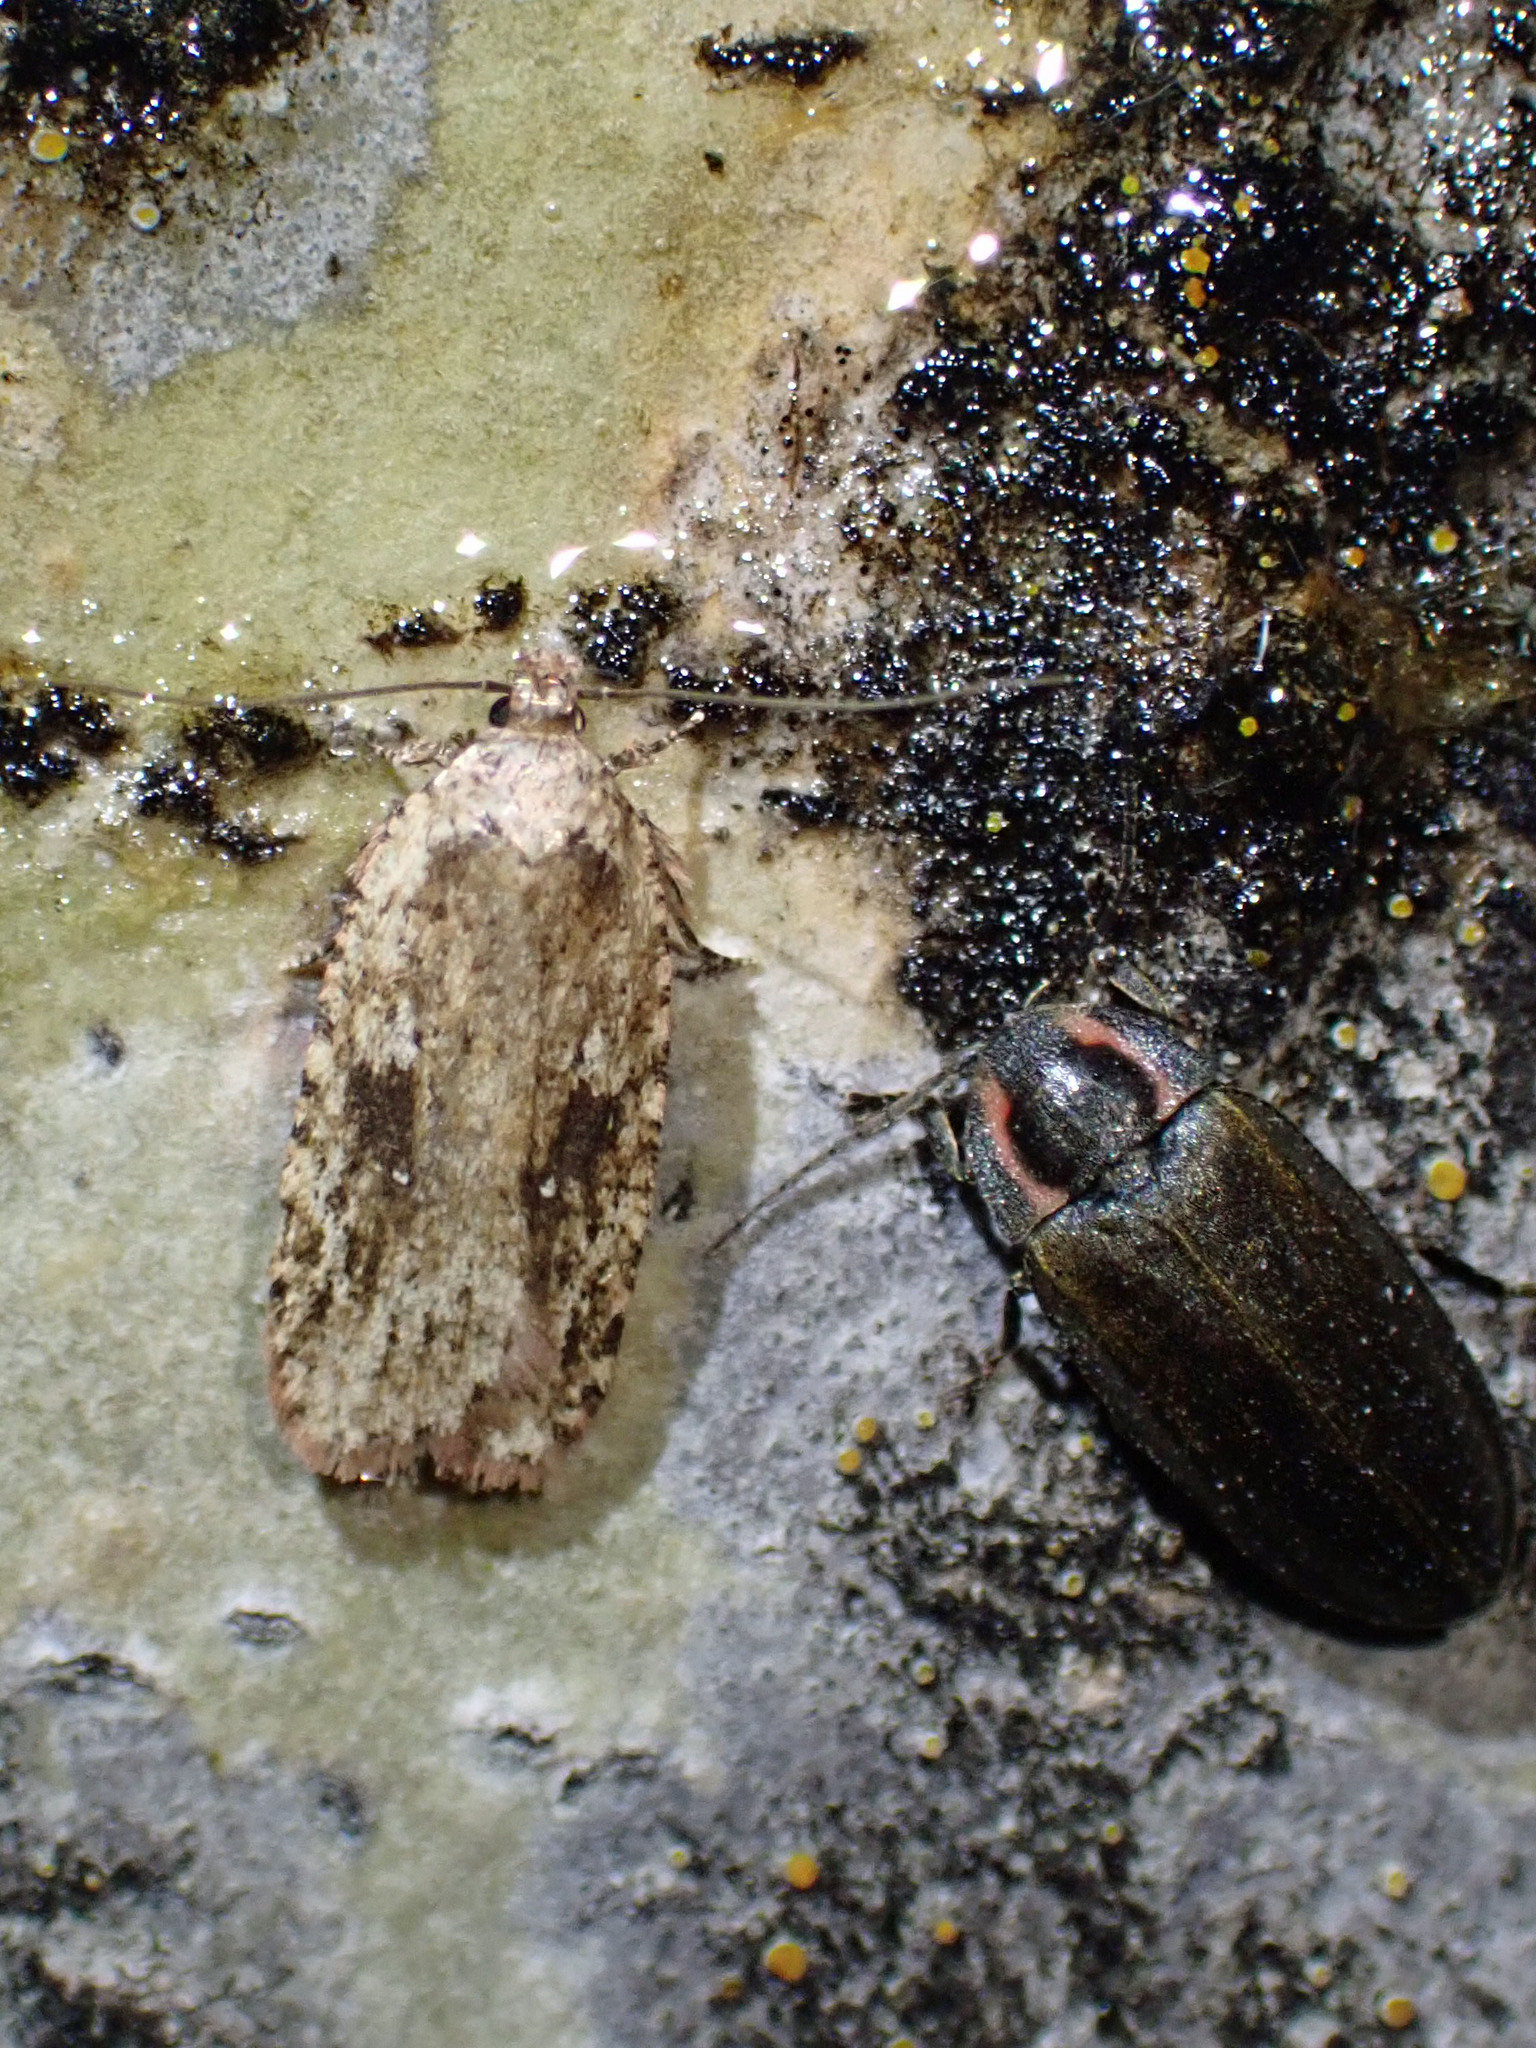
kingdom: Animalia
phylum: Arthropoda
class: Insecta
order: Lepidoptera
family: Depressariidae
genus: Agonopterix
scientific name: Agonopterix pulvipennella
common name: Goldenrod leafffolder
